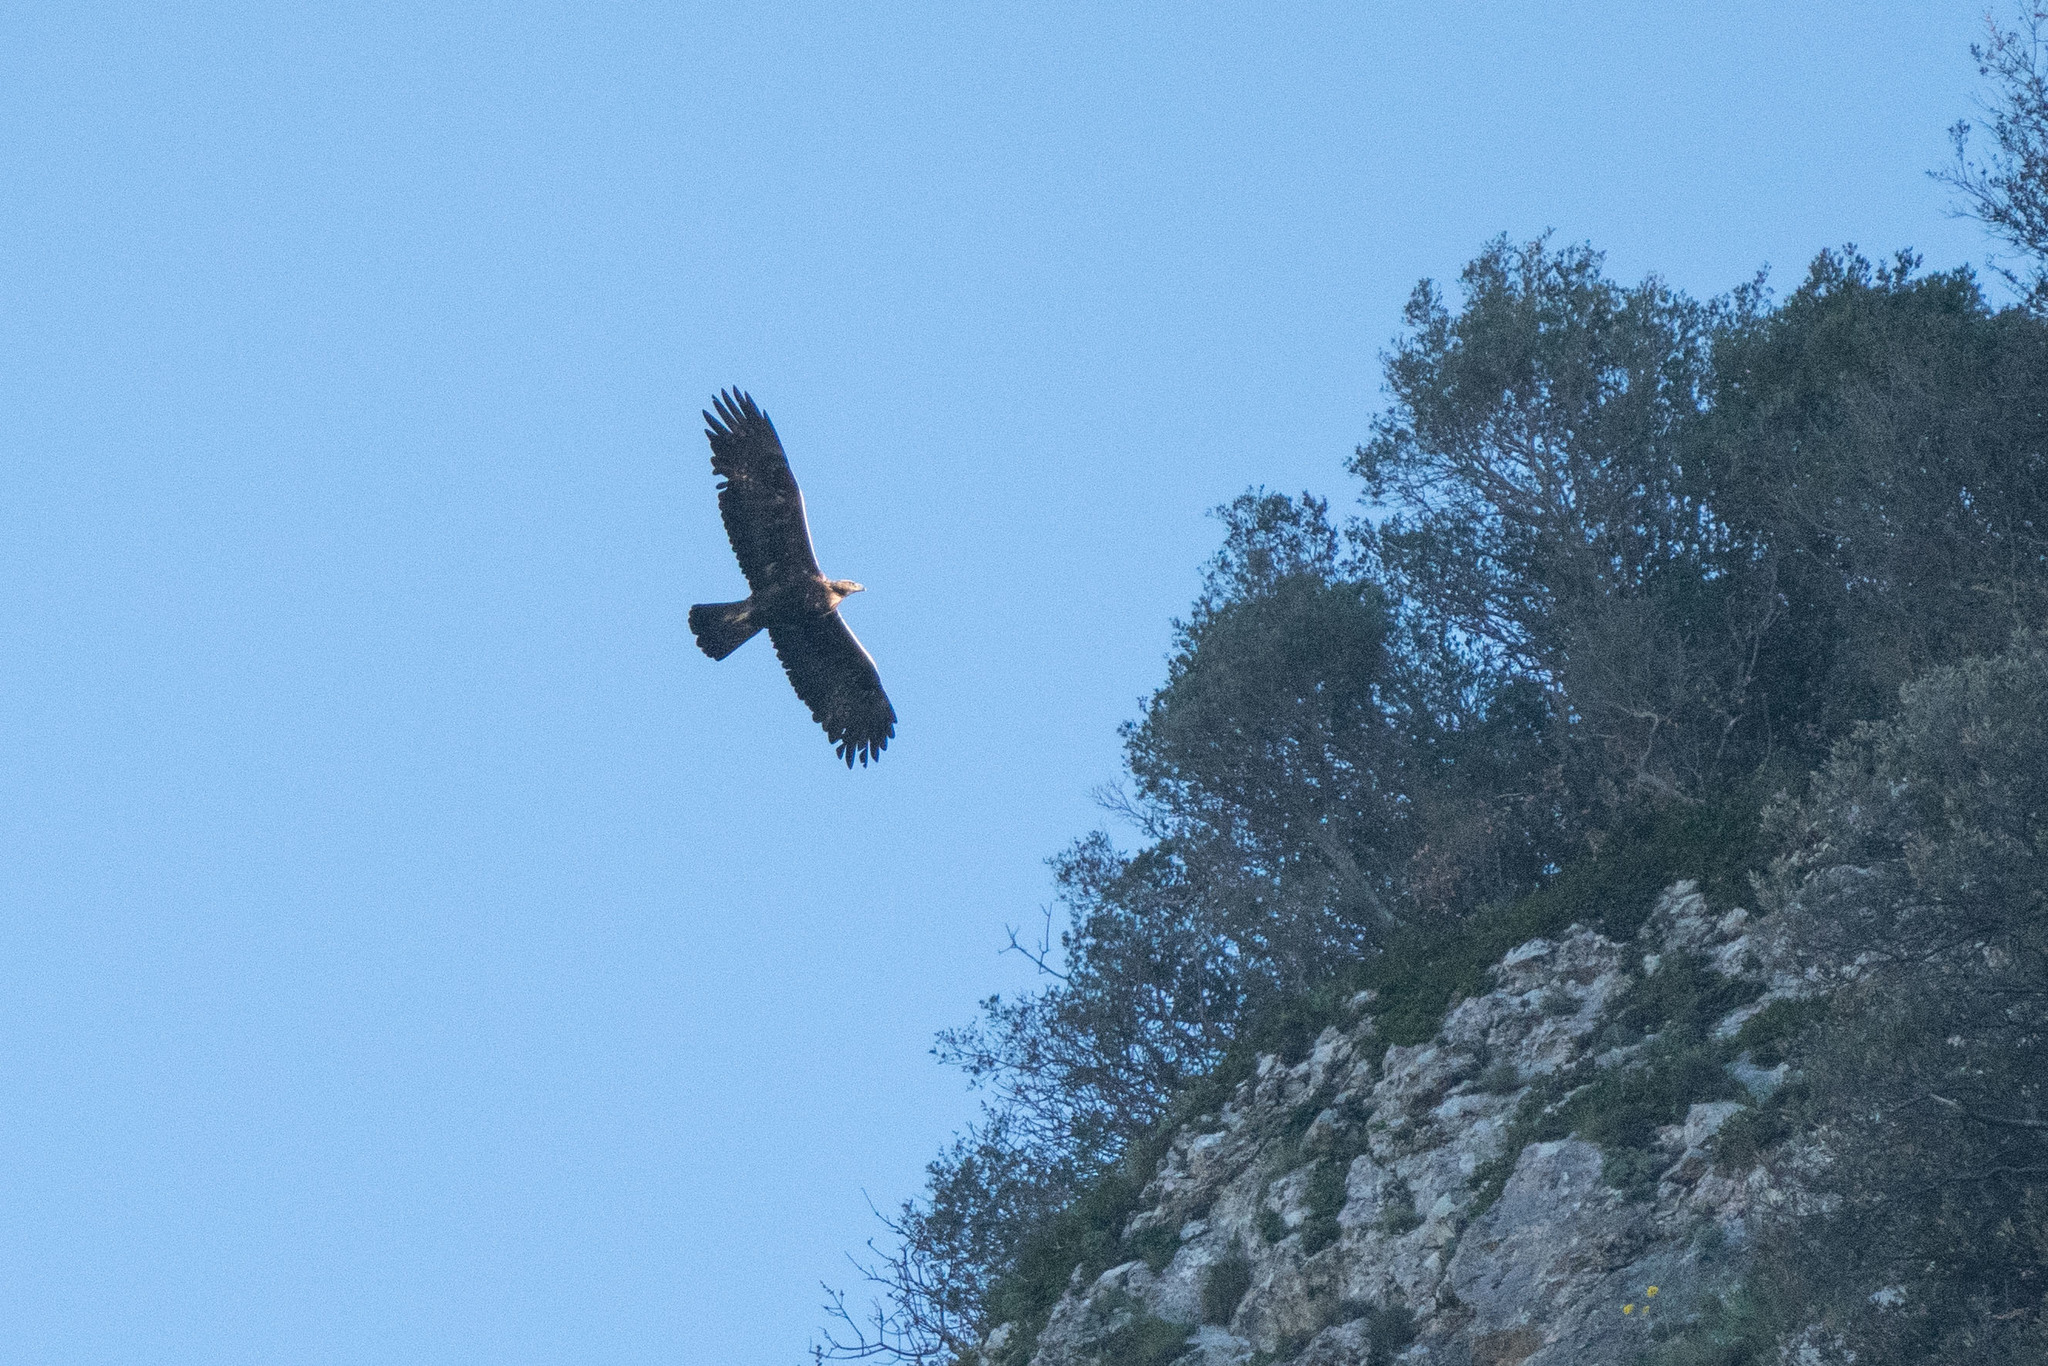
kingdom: Animalia
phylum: Chordata
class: Aves
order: Accipitriformes
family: Accipitridae
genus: Aquila
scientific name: Aquila chrysaetos
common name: Golden eagle
